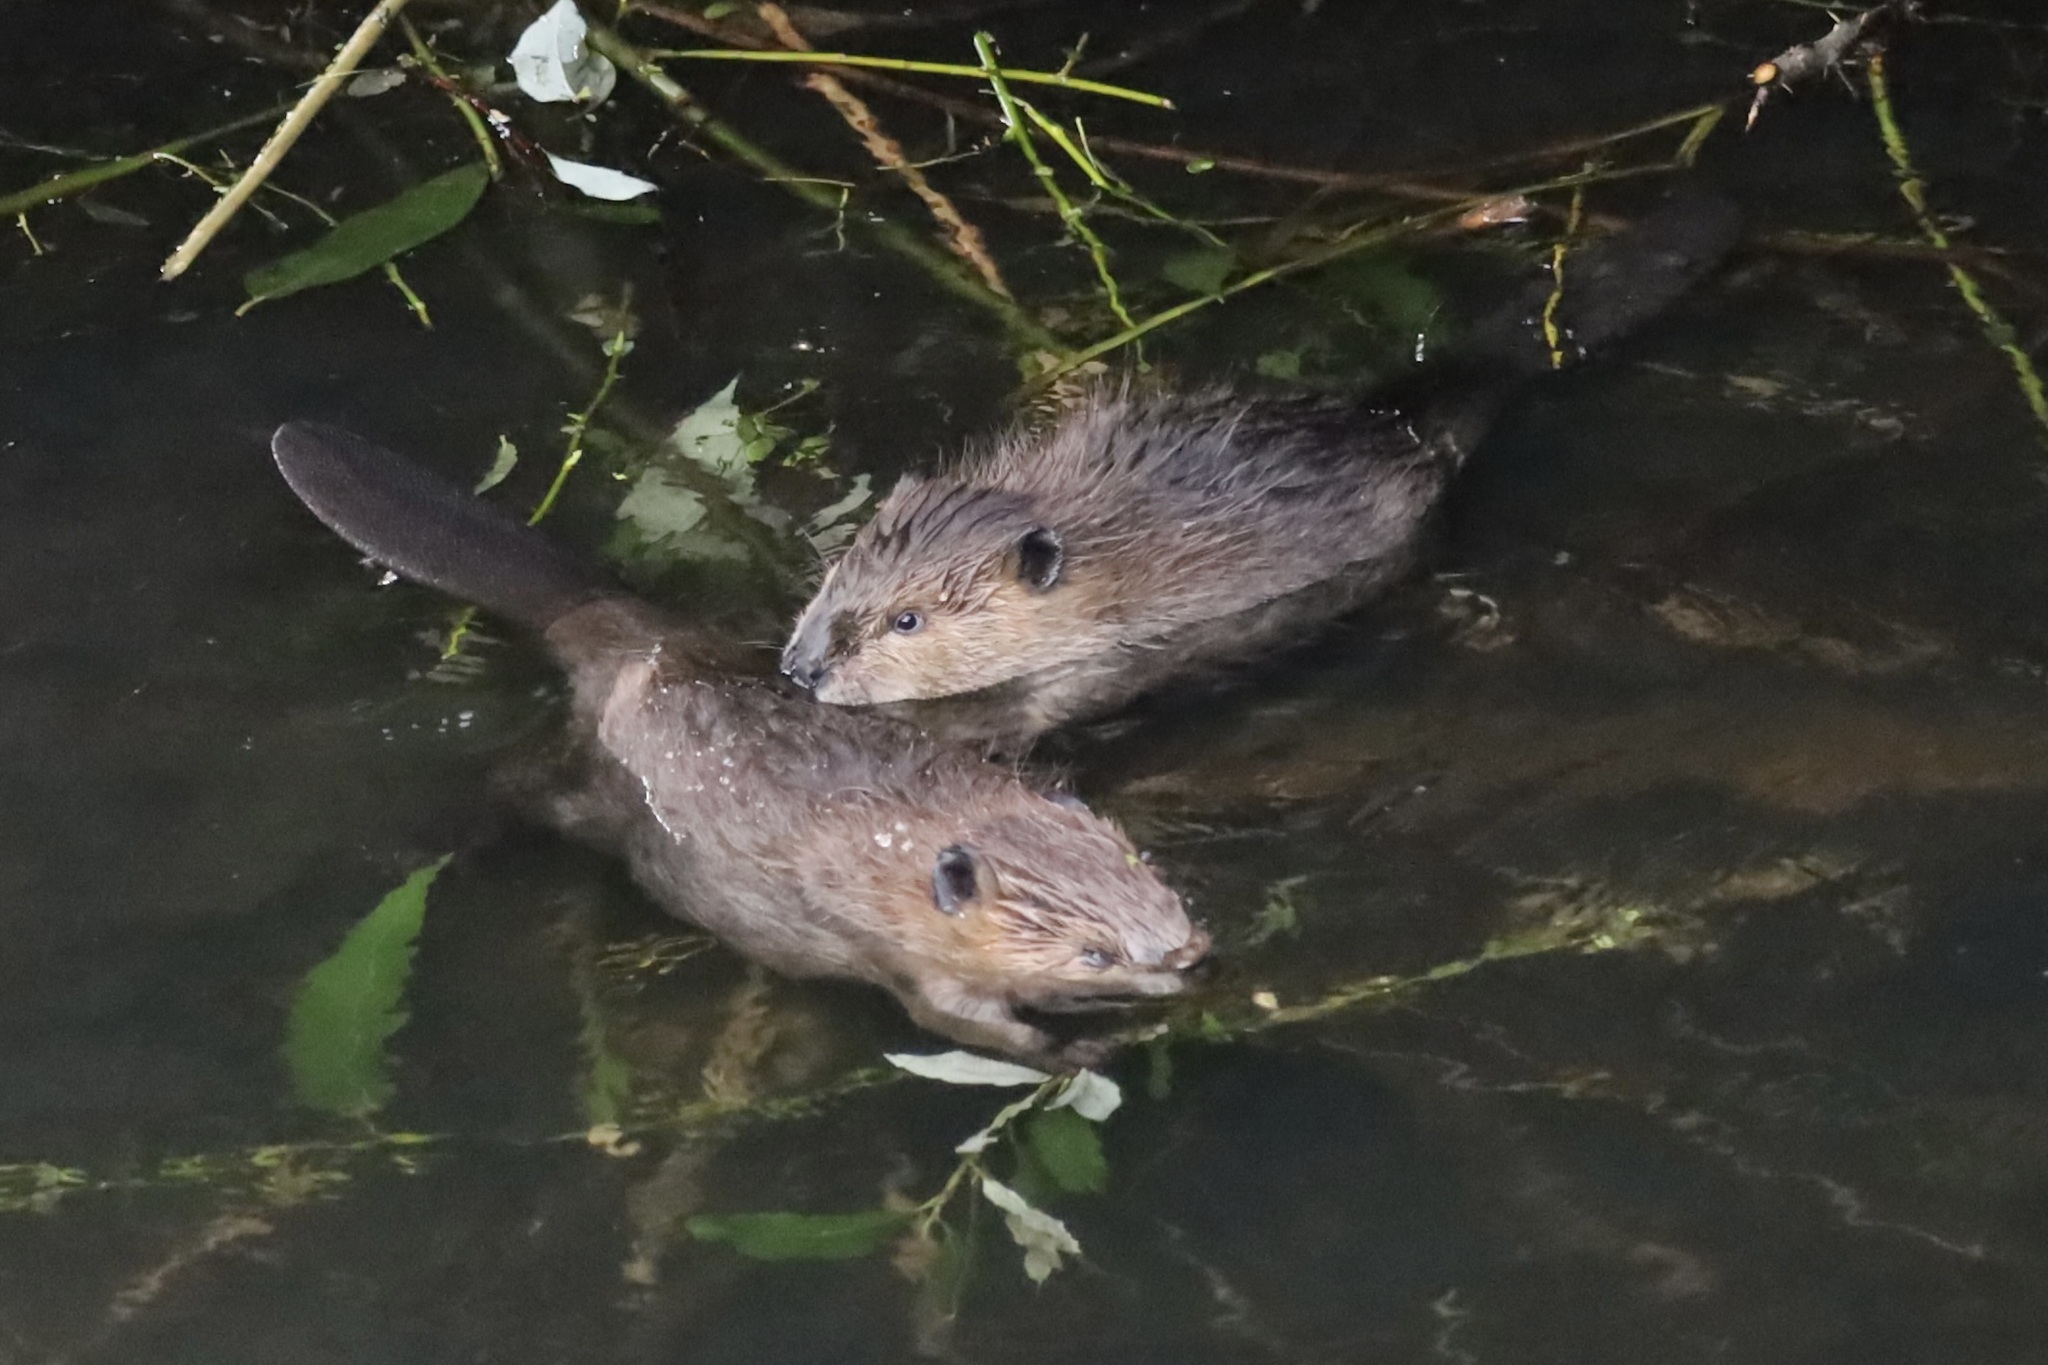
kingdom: Animalia
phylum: Chordata
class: Mammalia
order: Rodentia
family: Castoridae
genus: Castor
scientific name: Castor canadensis
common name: American beaver
